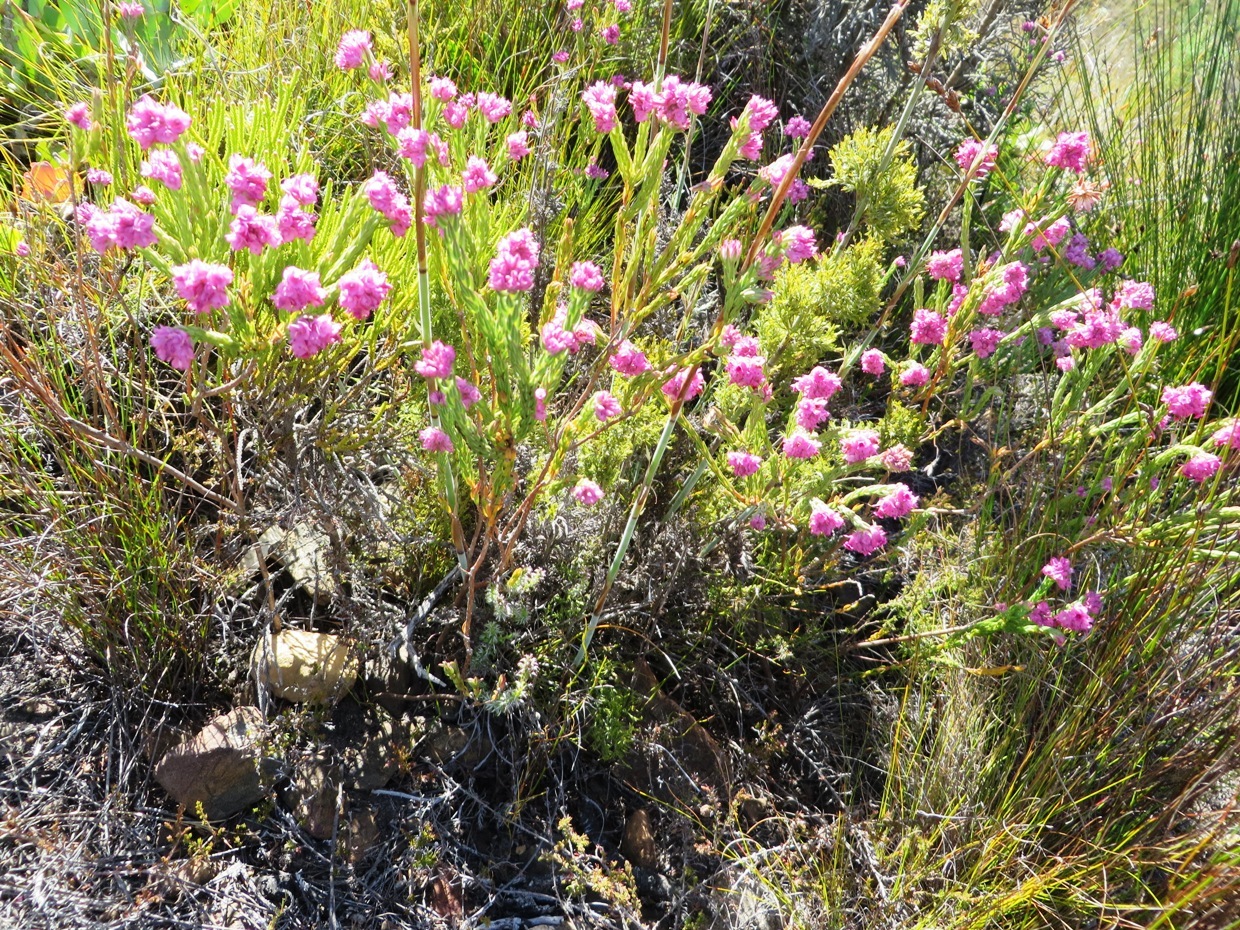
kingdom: Plantae
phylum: Tracheophyta
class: Magnoliopsida
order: Ericales
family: Ericaceae
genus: Erica
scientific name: Erica corifolia
